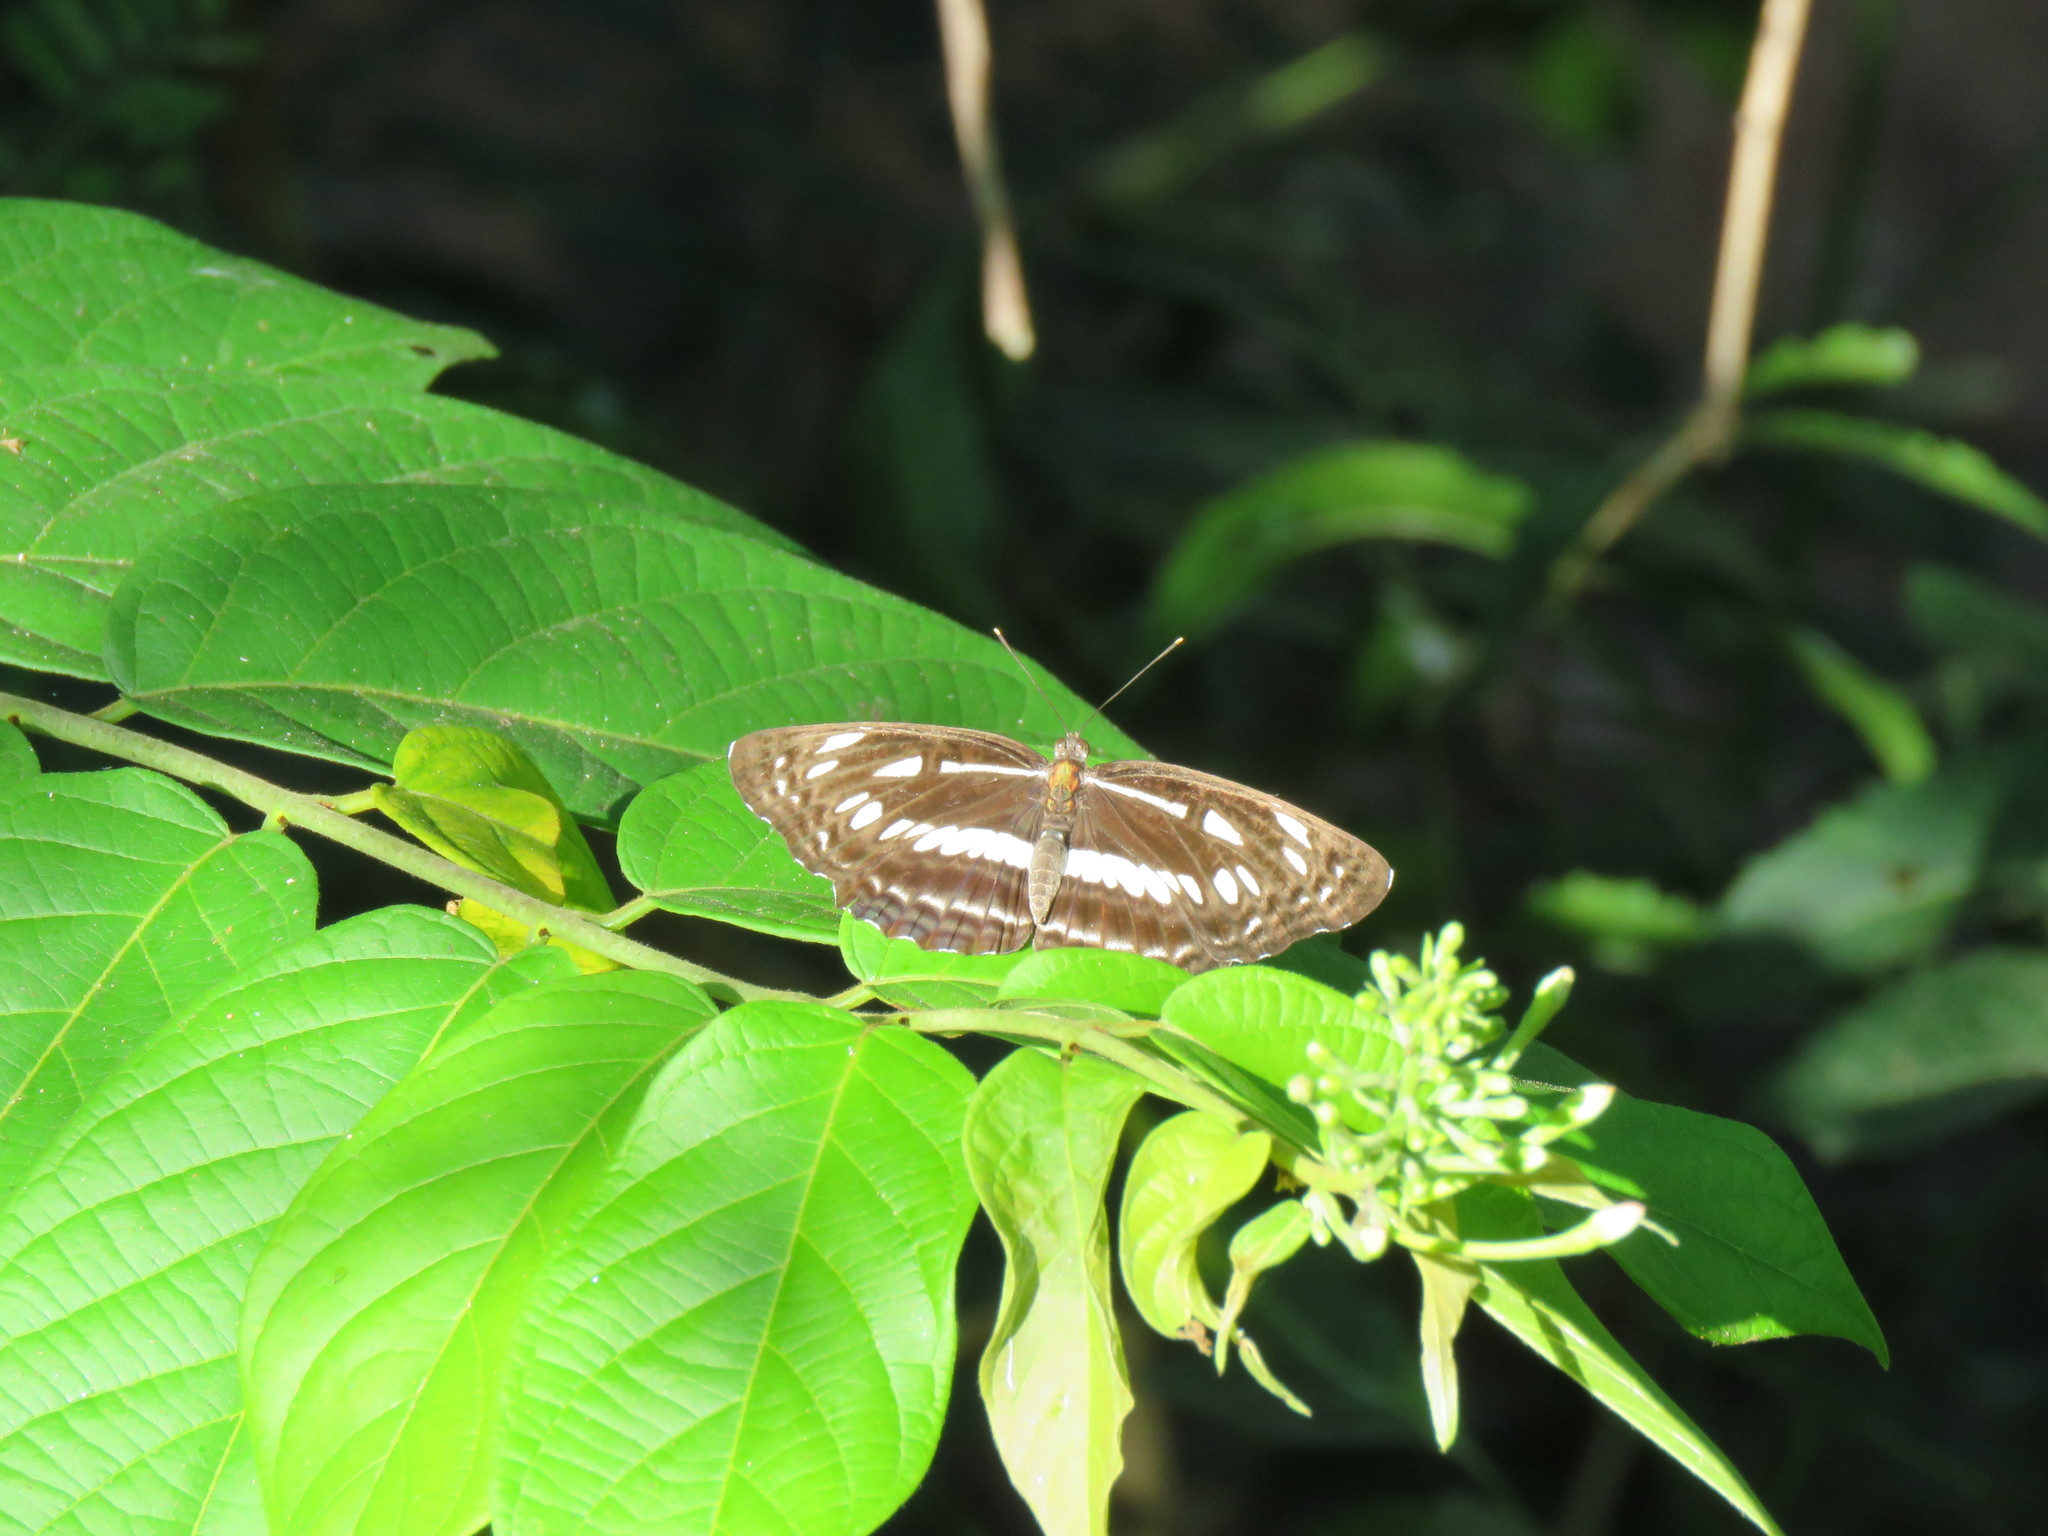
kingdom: Animalia
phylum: Arthropoda
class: Insecta
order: Lepidoptera
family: Nymphalidae
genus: Neptis
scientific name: Neptis jumbah
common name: Chestnut-streaked sailer
